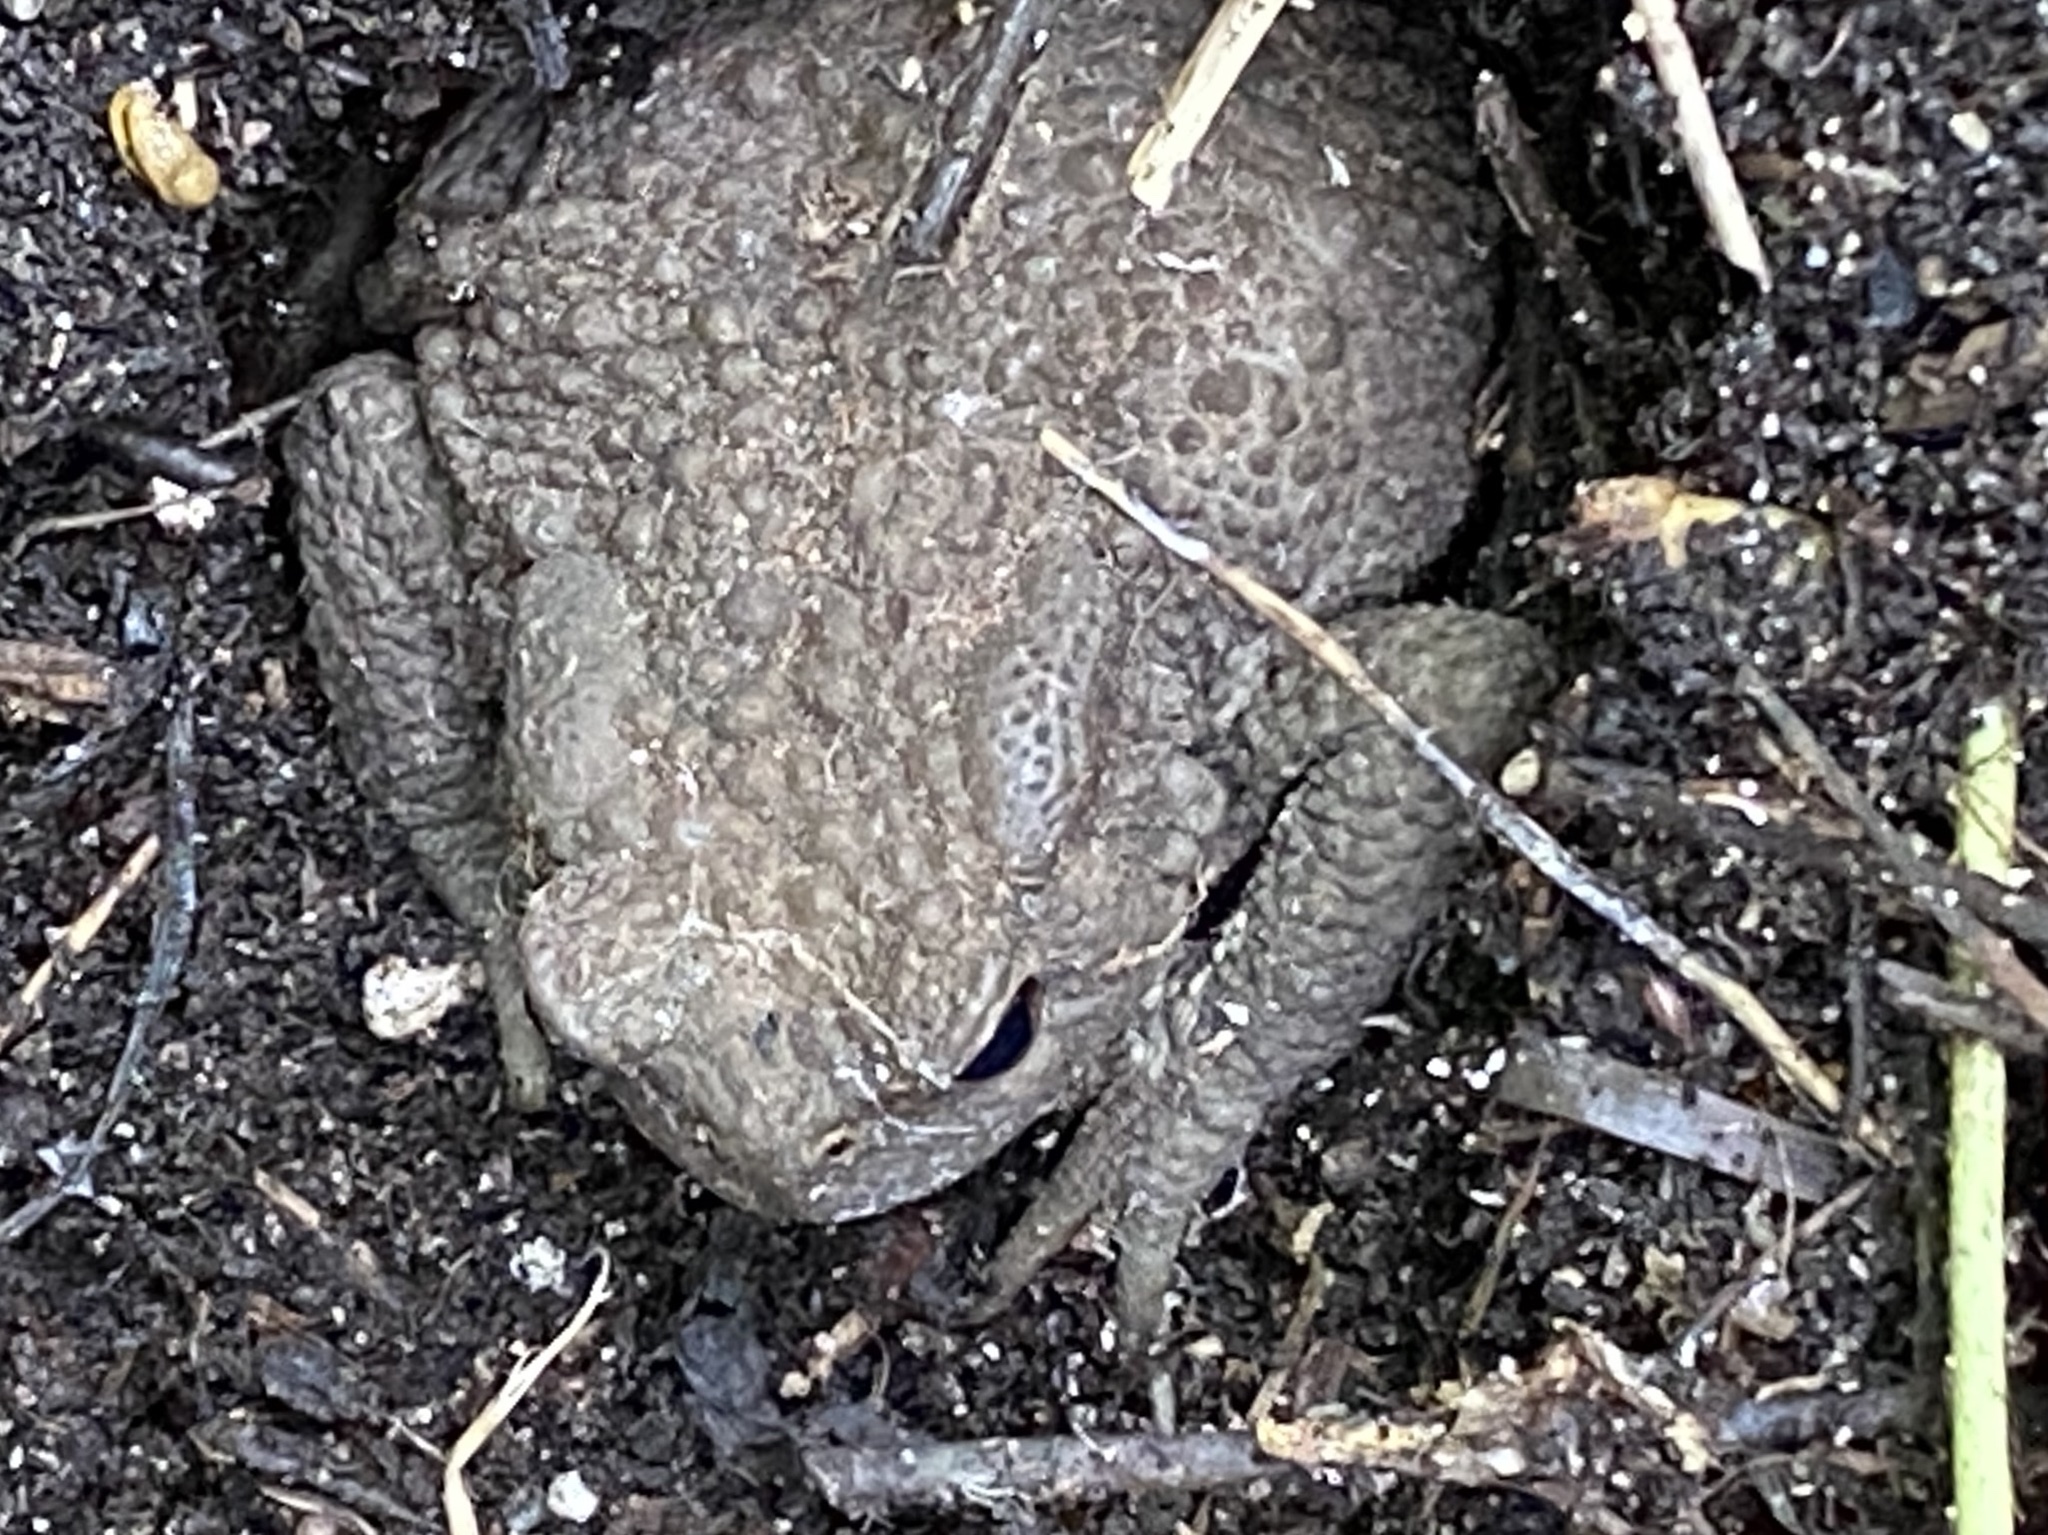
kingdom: Animalia
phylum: Chordata
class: Amphibia
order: Anura
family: Bufonidae
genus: Bufo
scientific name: Bufo bufo
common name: Common toad
